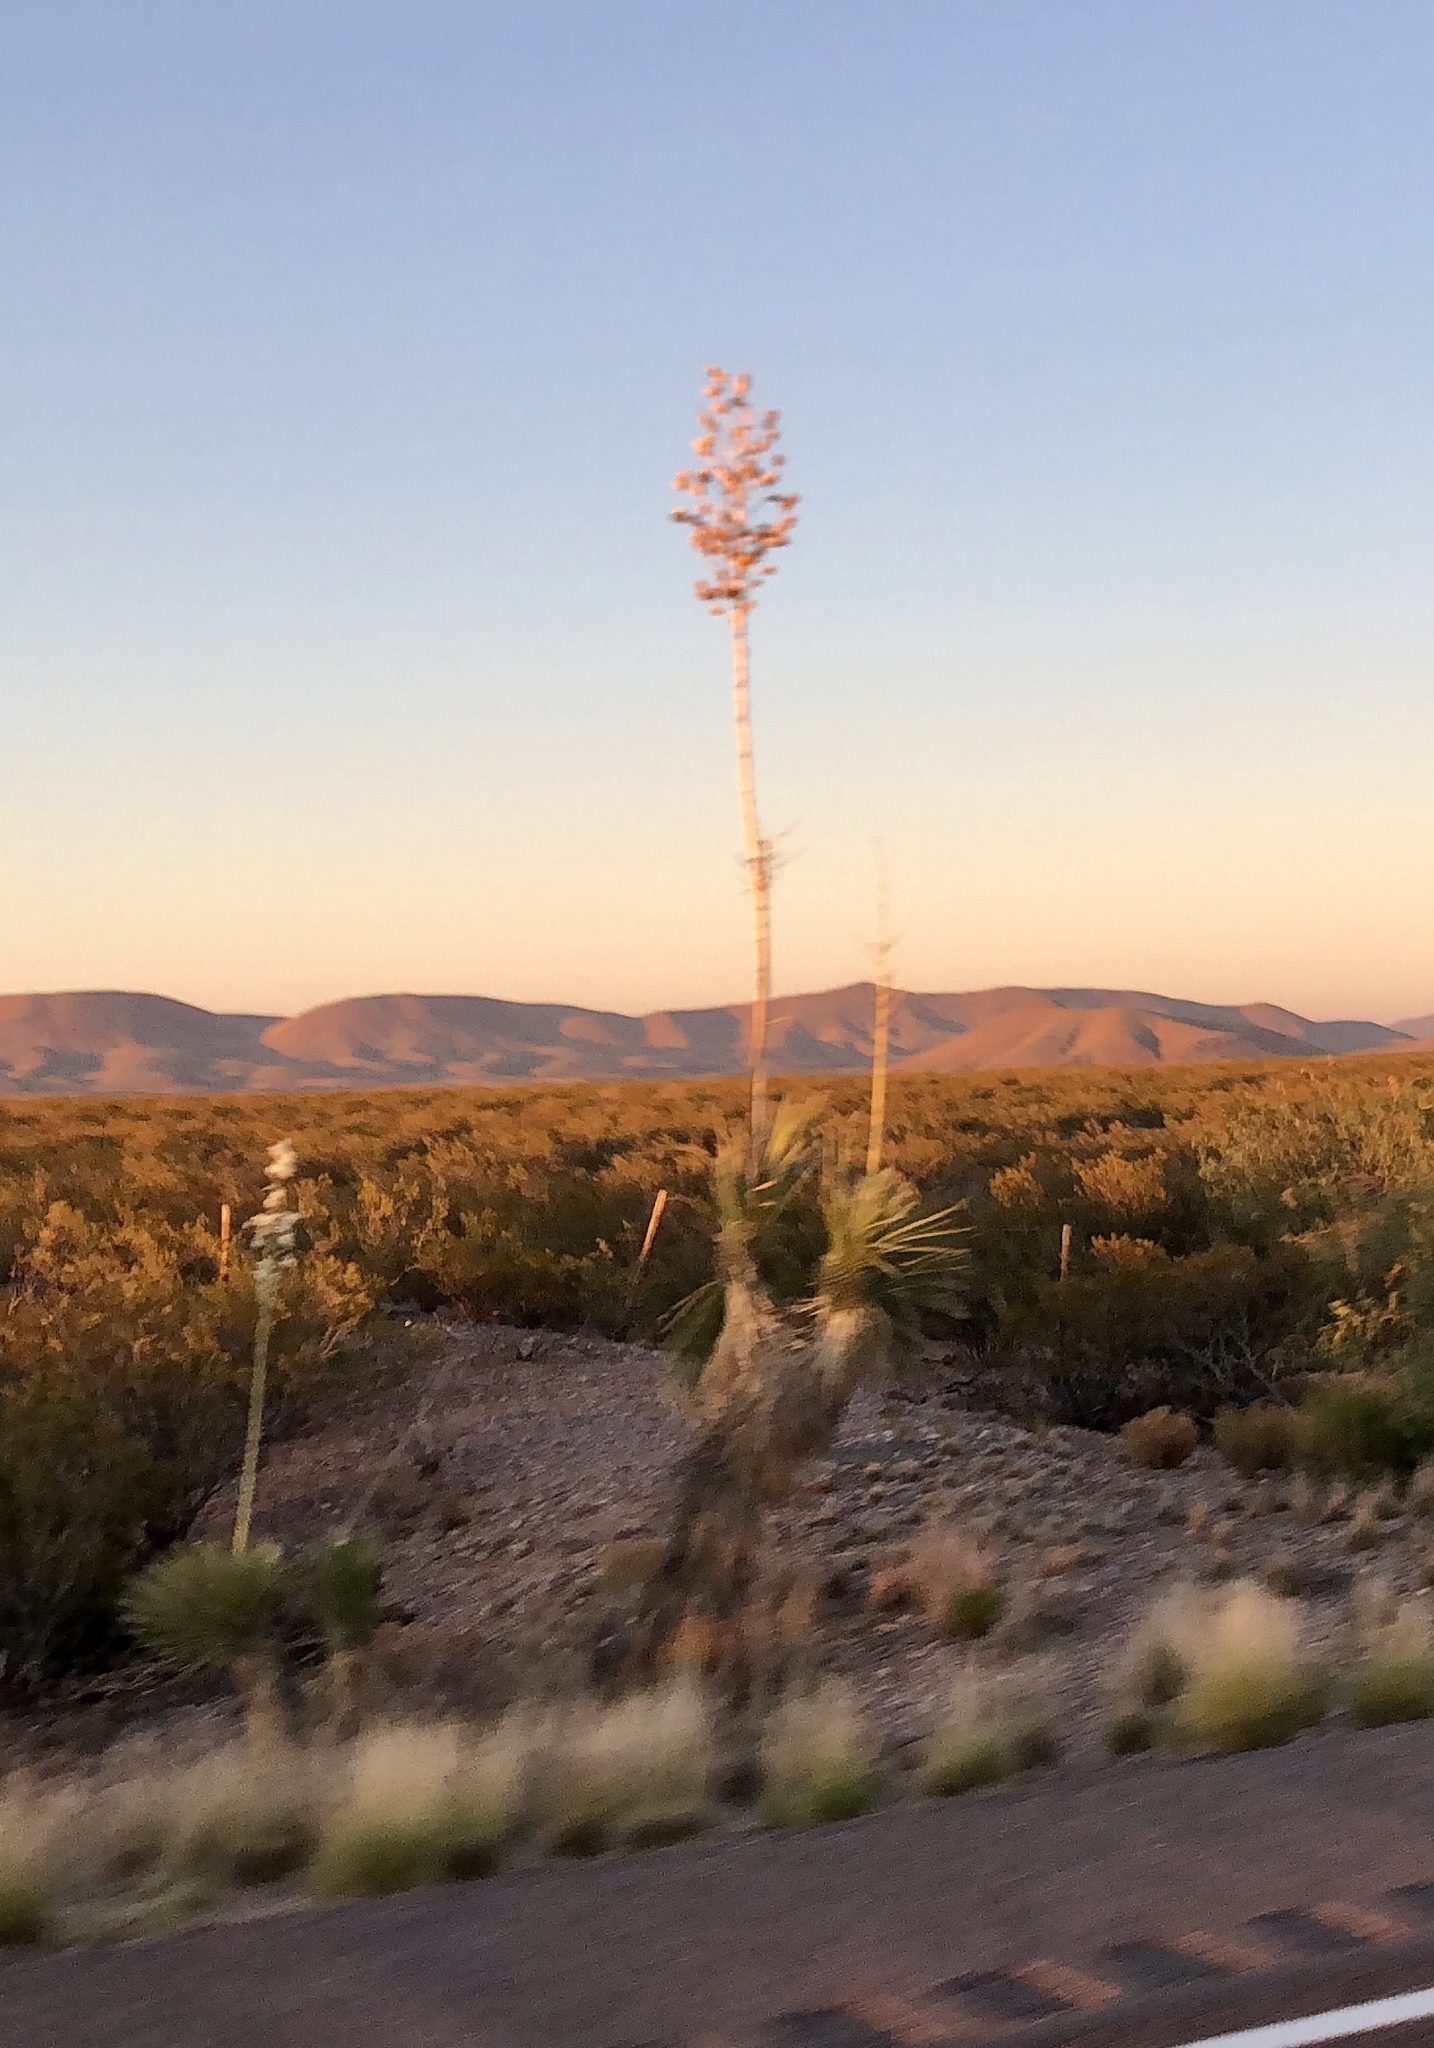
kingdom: Plantae
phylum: Tracheophyta
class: Liliopsida
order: Asparagales
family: Asparagaceae
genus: Yucca
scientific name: Yucca elata
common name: Palmella
